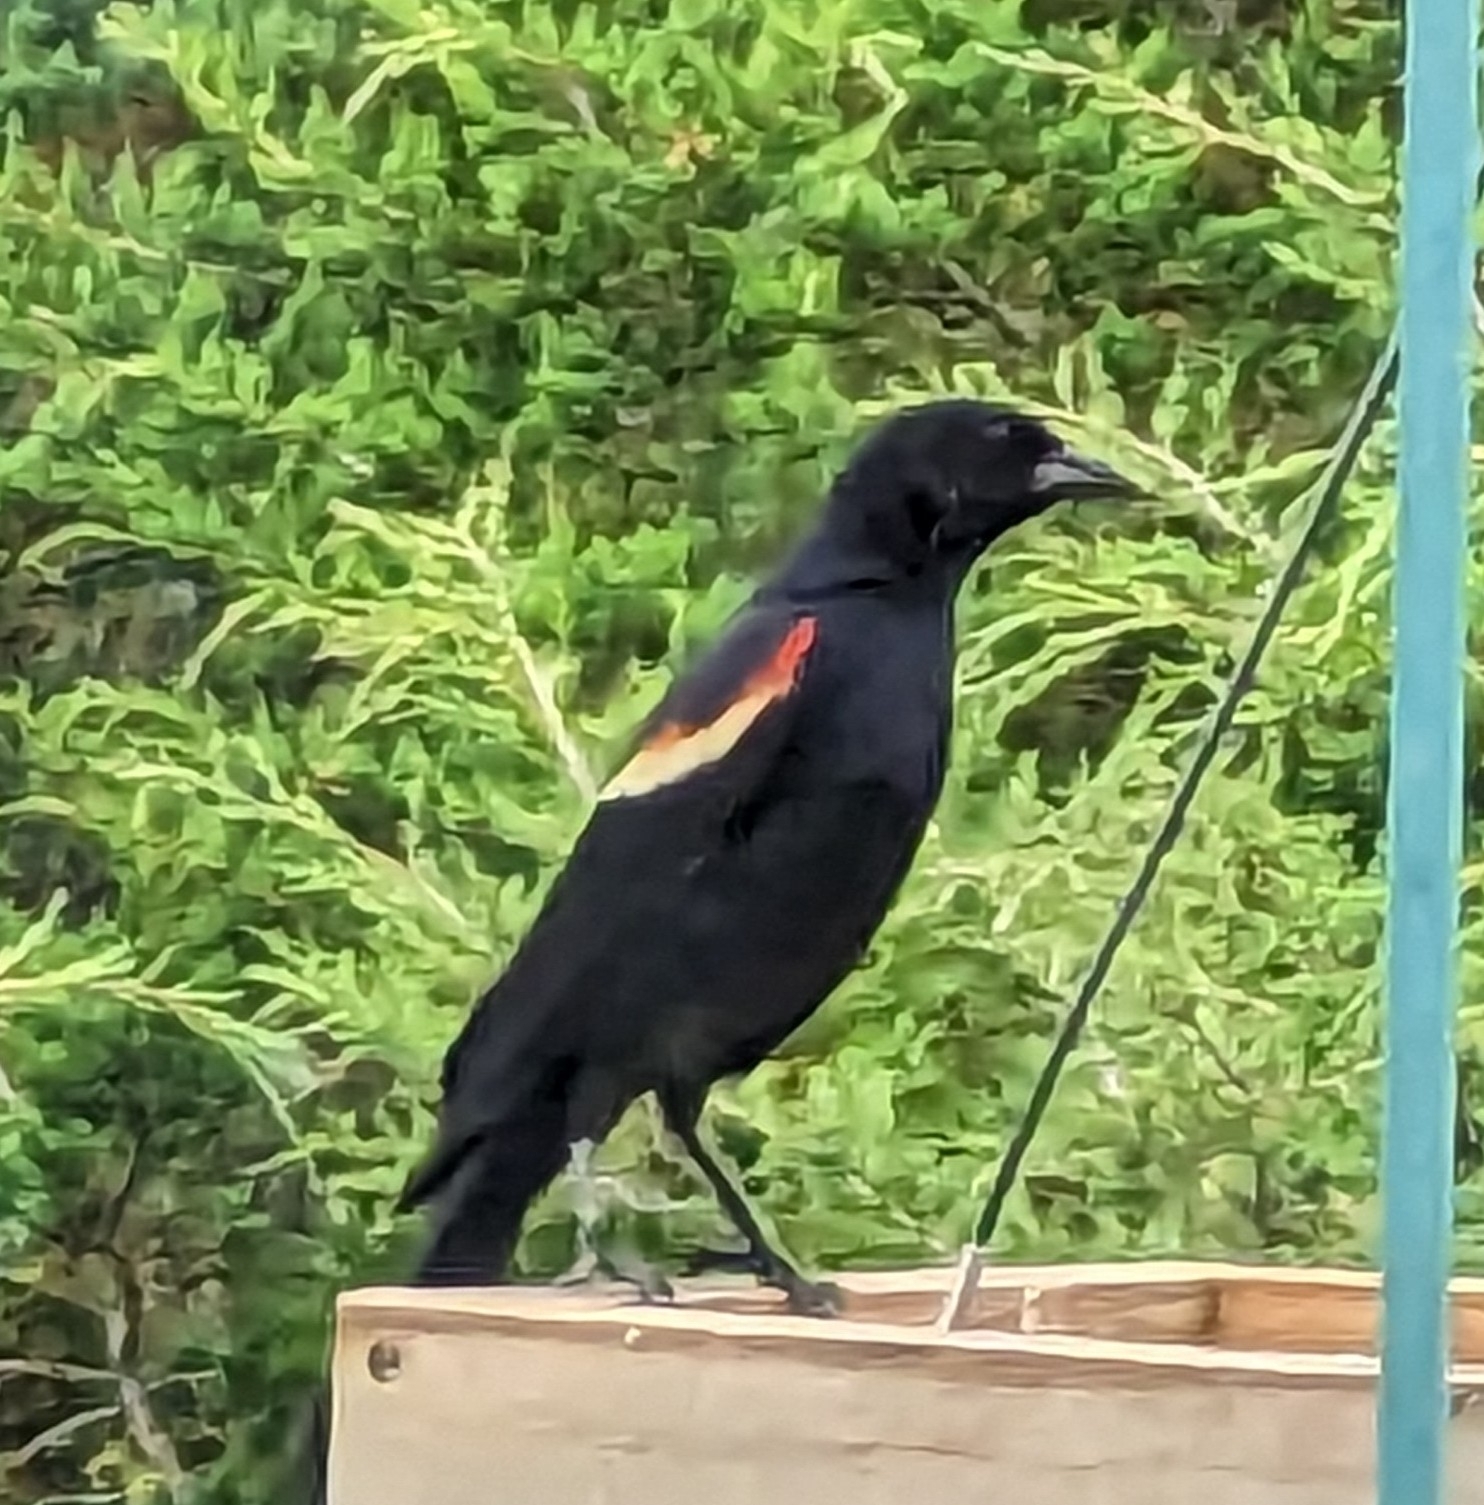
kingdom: Animalia
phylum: Chordata
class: Aves
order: Passeriformes
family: Icteridae
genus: Agelaius
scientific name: Agelaius phoeniceus
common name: Red-winged blackbird
